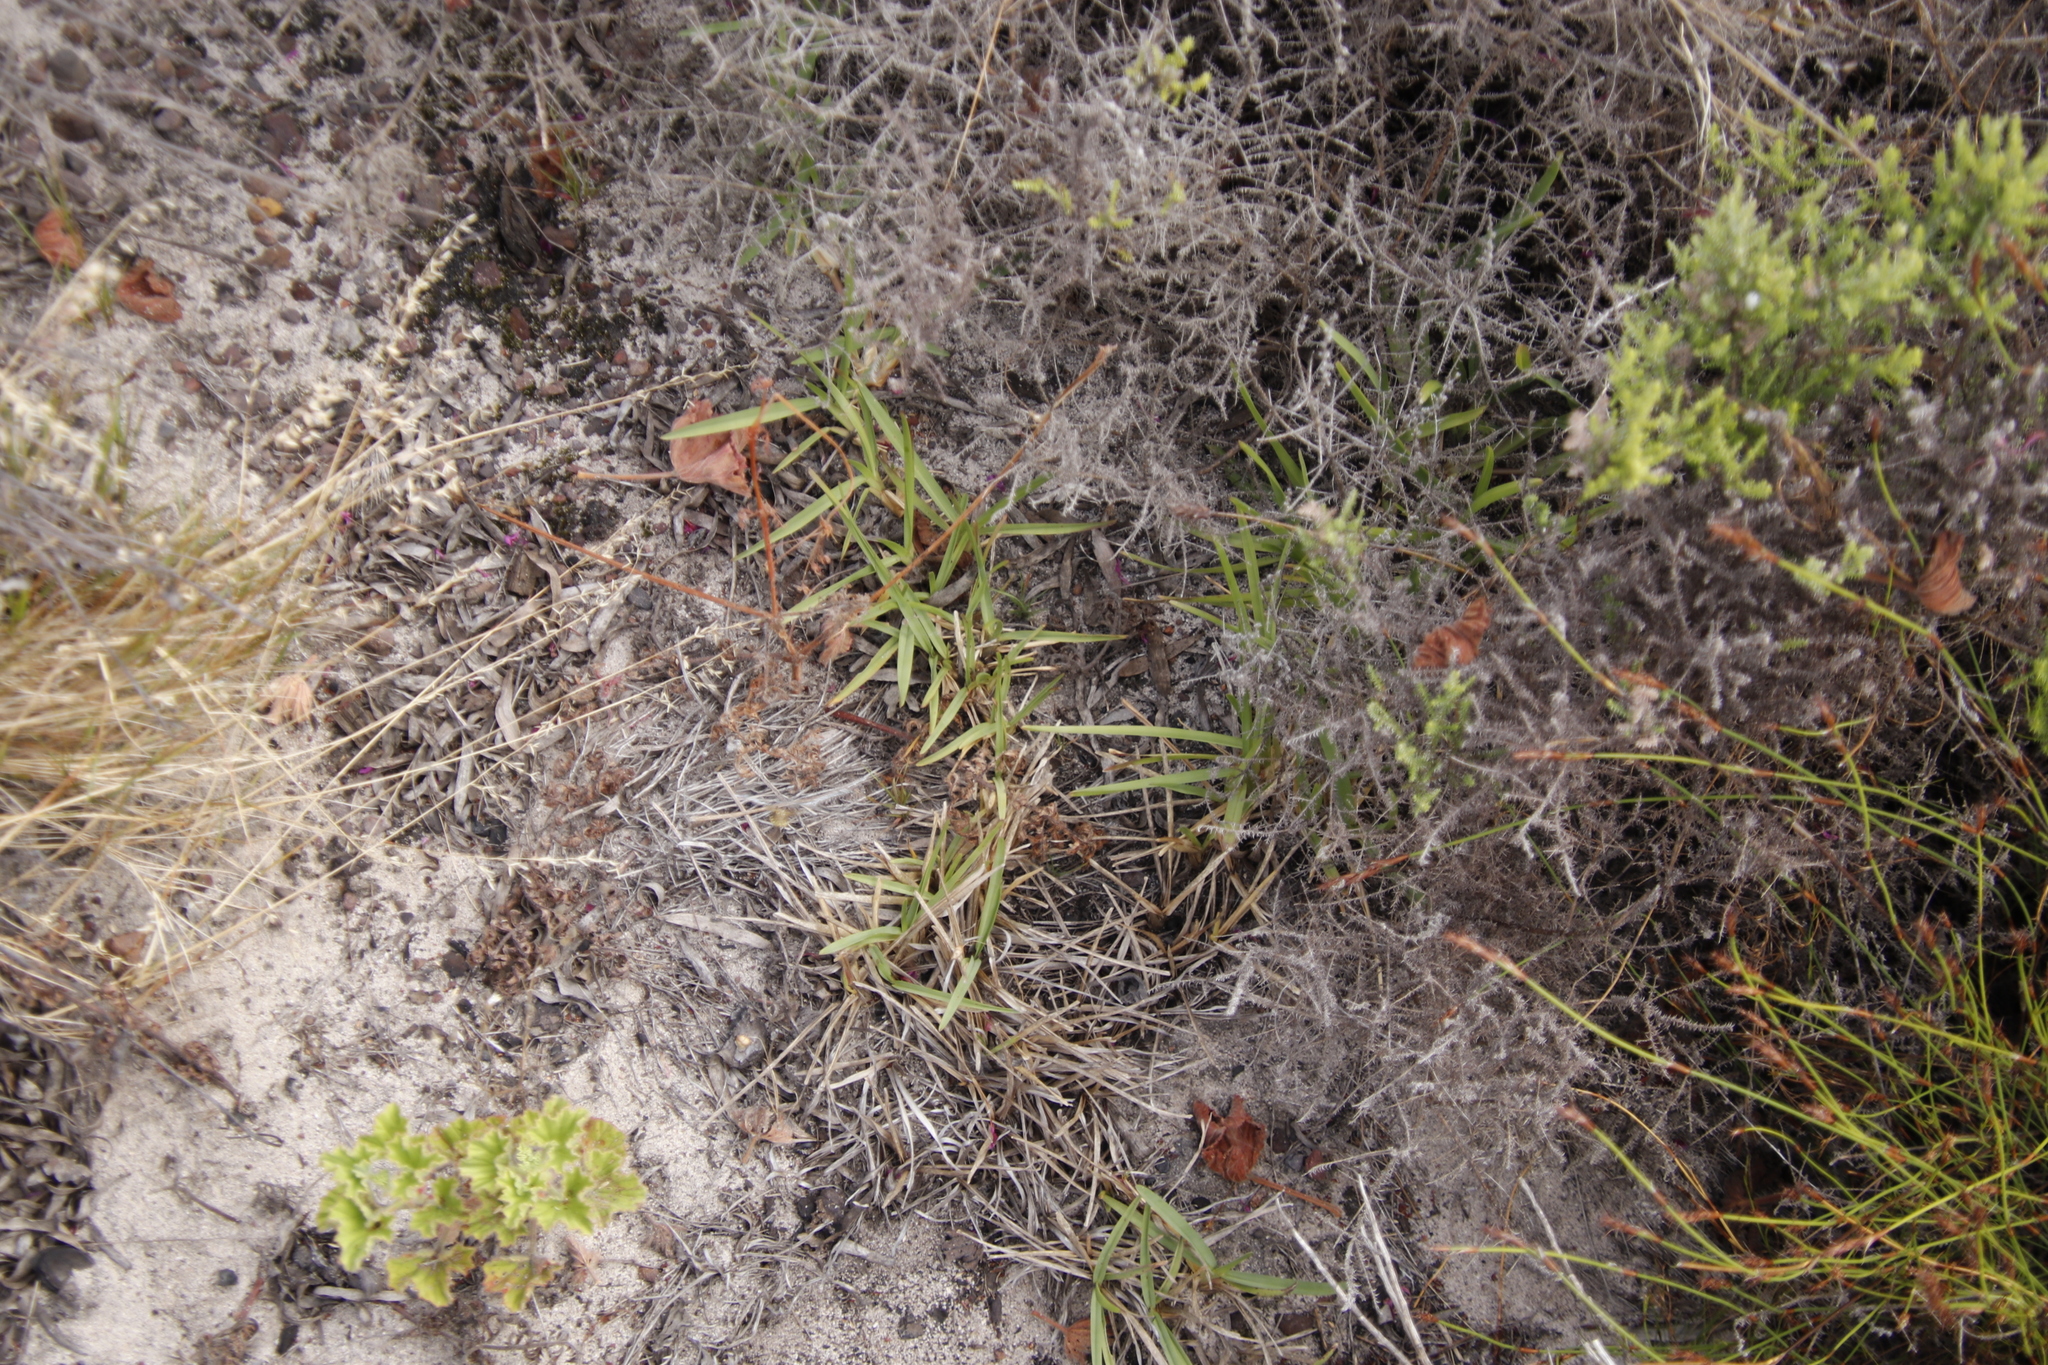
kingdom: Plantae
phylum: Tracheophyta
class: Liliopsida
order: Poales
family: Poaceae
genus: Stenotaphrum
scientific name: Stenotaphrum secundatum
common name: St. augustine grass
